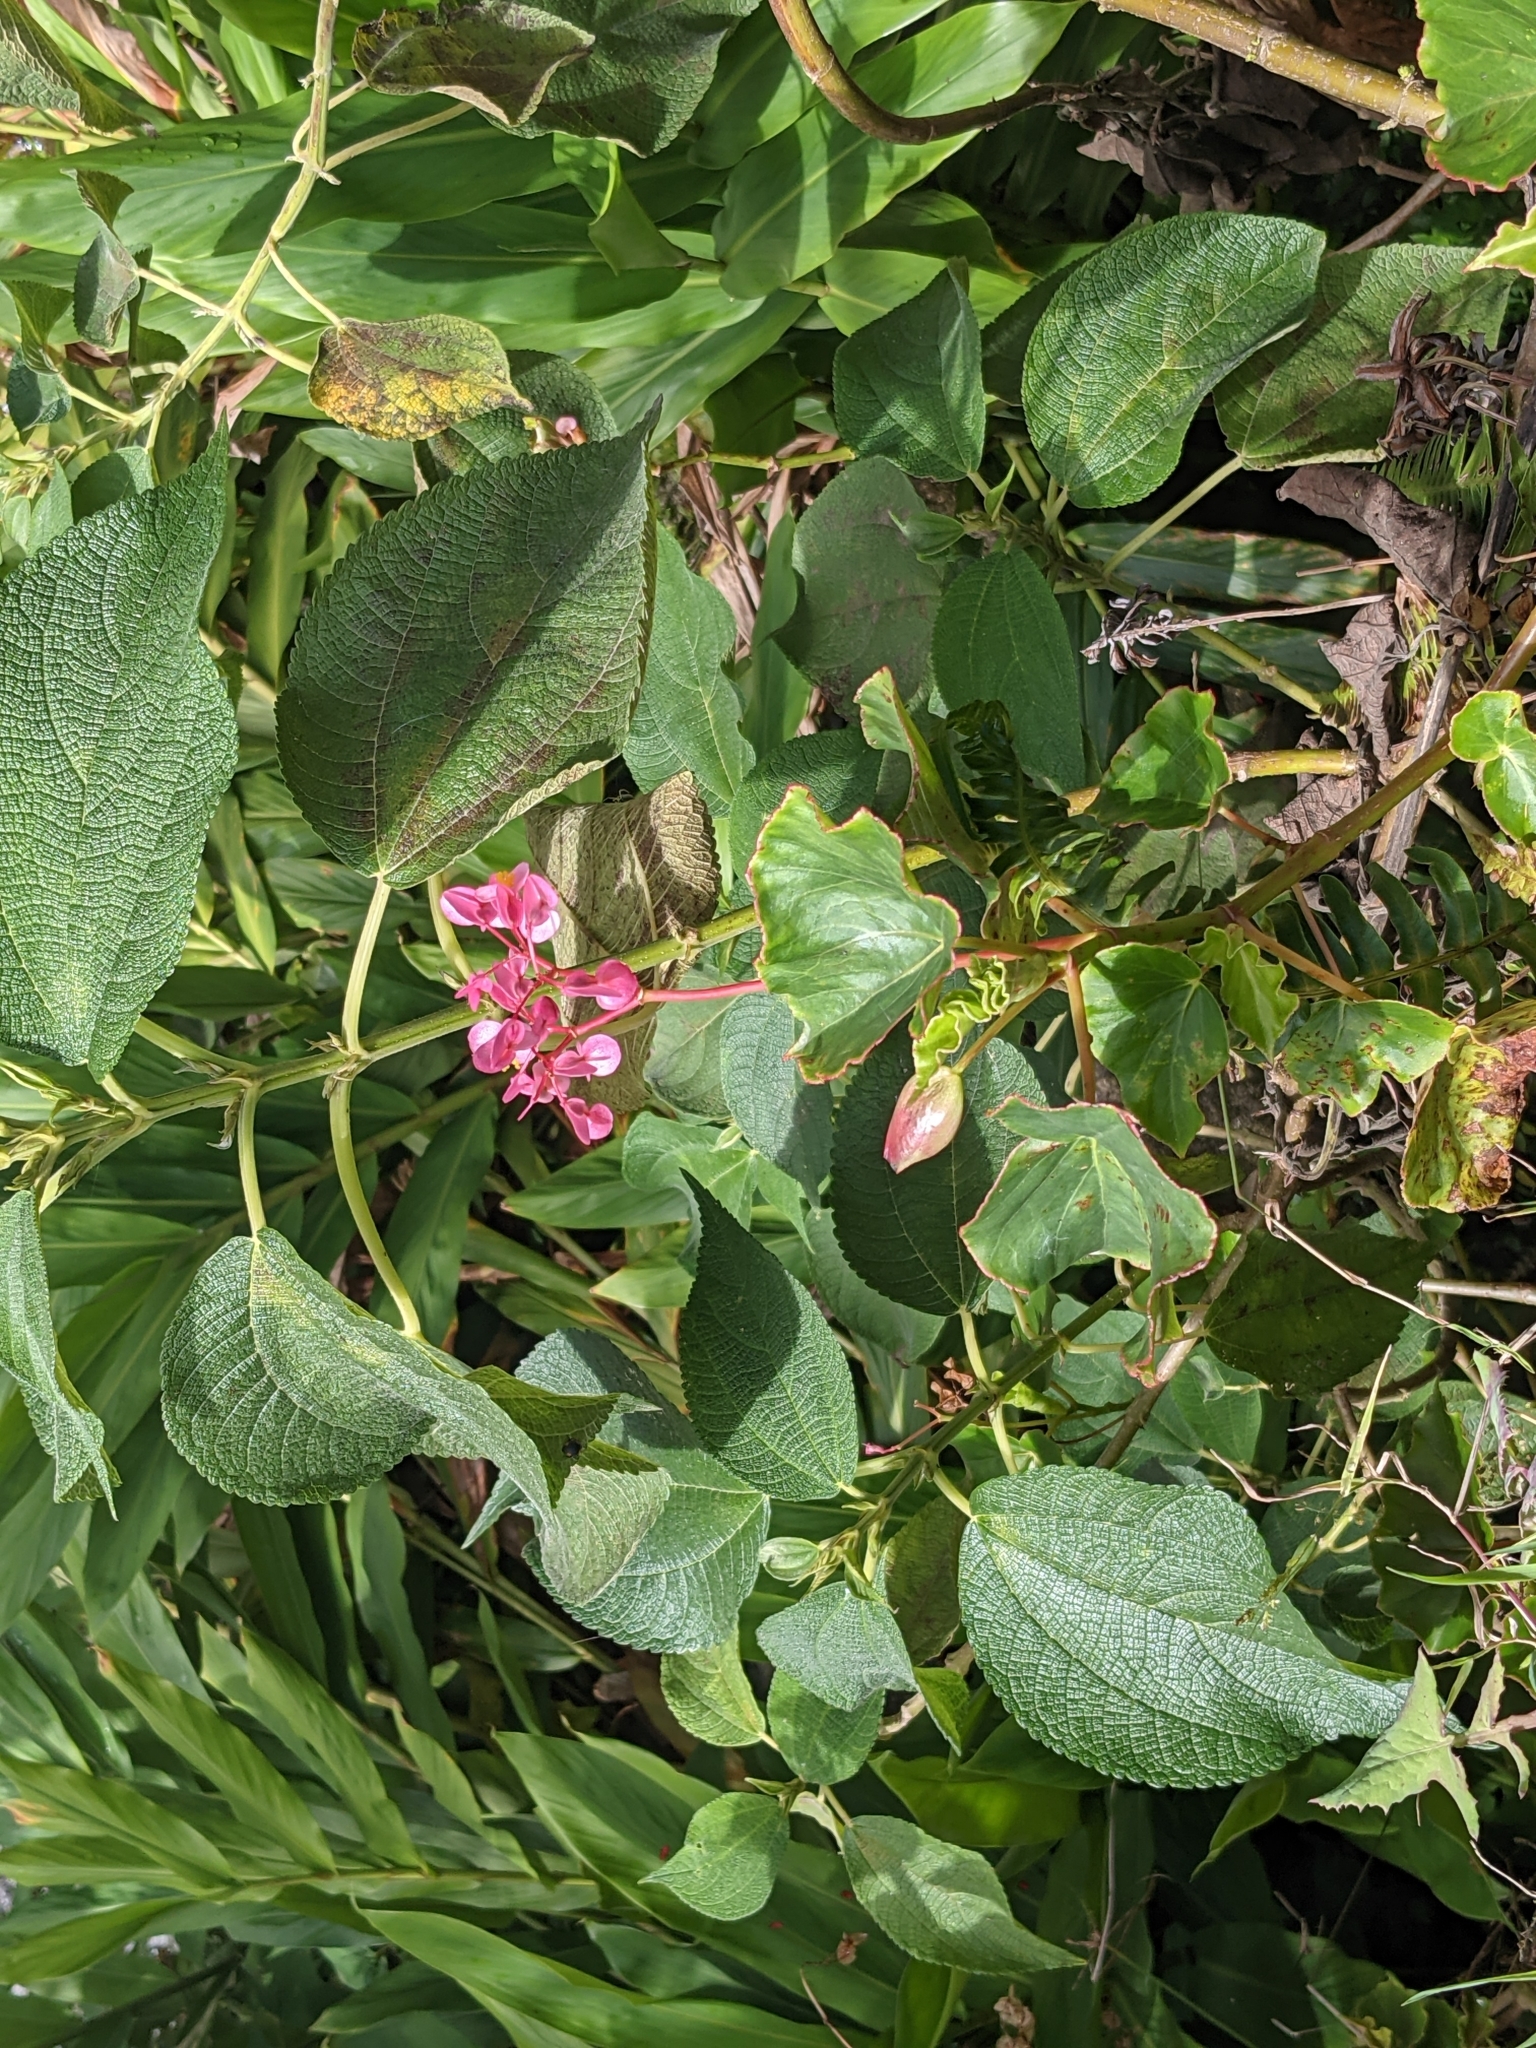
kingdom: Plantae
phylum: Tracheophyta
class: Magnoliopsida
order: Cucurbitales
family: Begoniaceae
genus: Begonia
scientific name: Begonia bracteosa
